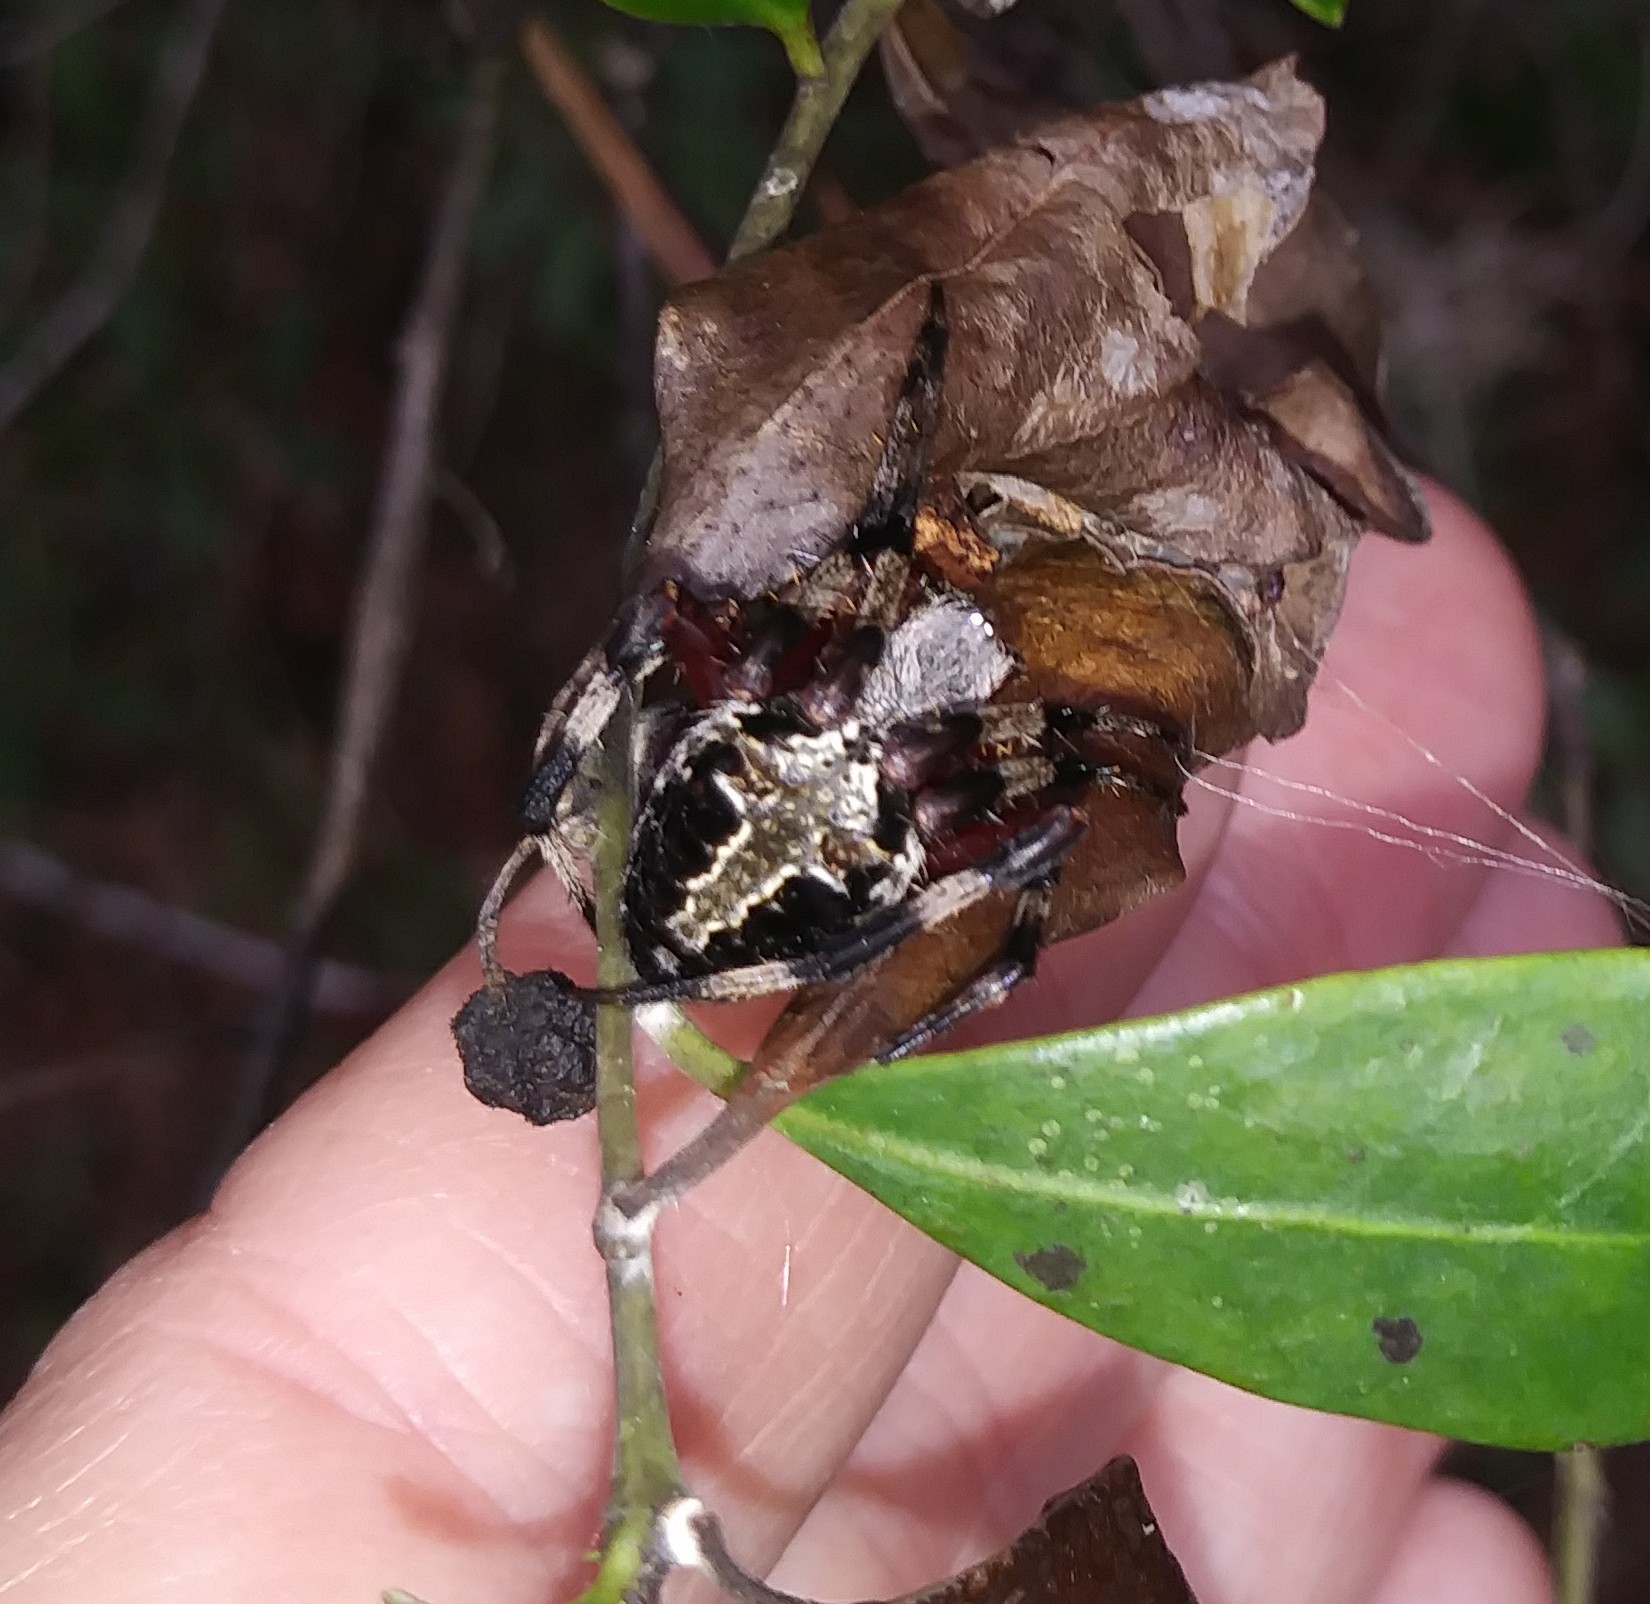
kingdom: Animalia
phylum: Arthropoda
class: Arachnida
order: Araneae
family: Araneidae
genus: Neoscona
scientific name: Neoscona domiciliorum
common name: Red-femured spotted orbweaver
